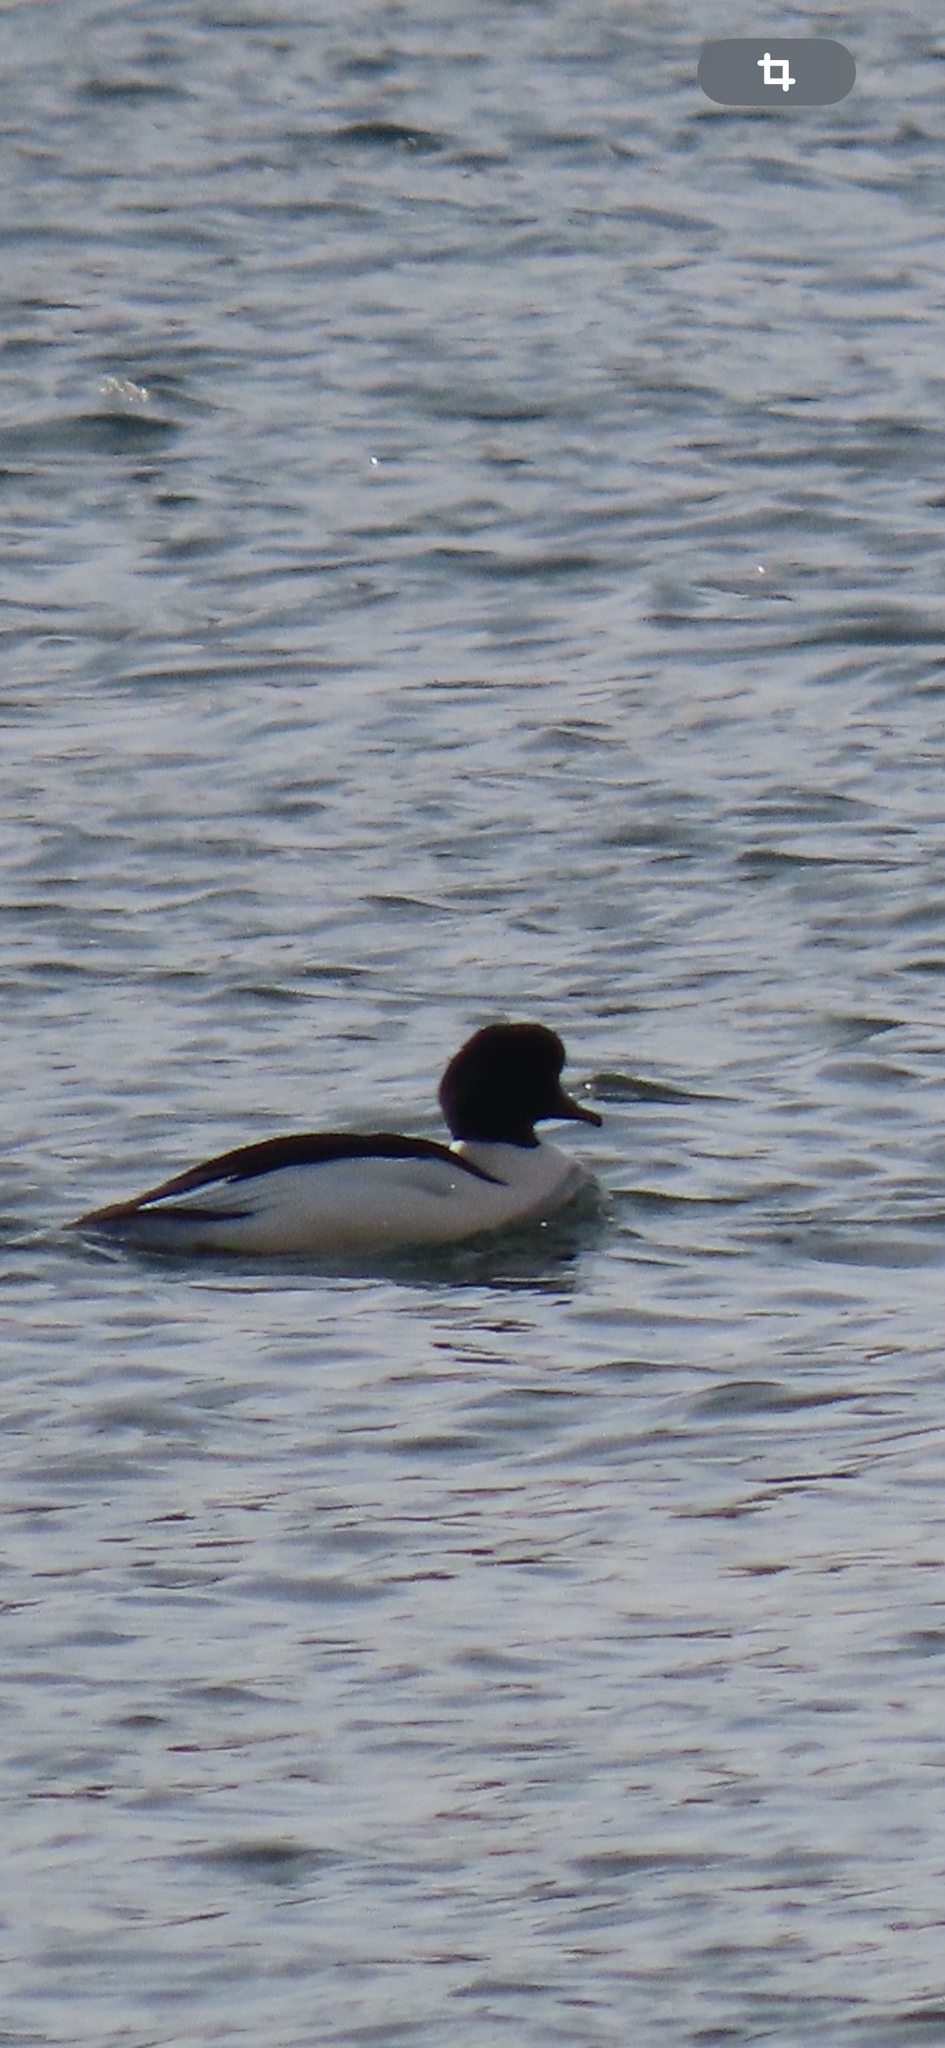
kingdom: Animalia
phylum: Chordata
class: Aves
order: Anseriformes
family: Anatidae
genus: Mergus
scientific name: Mergus merganser
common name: Common merganser
